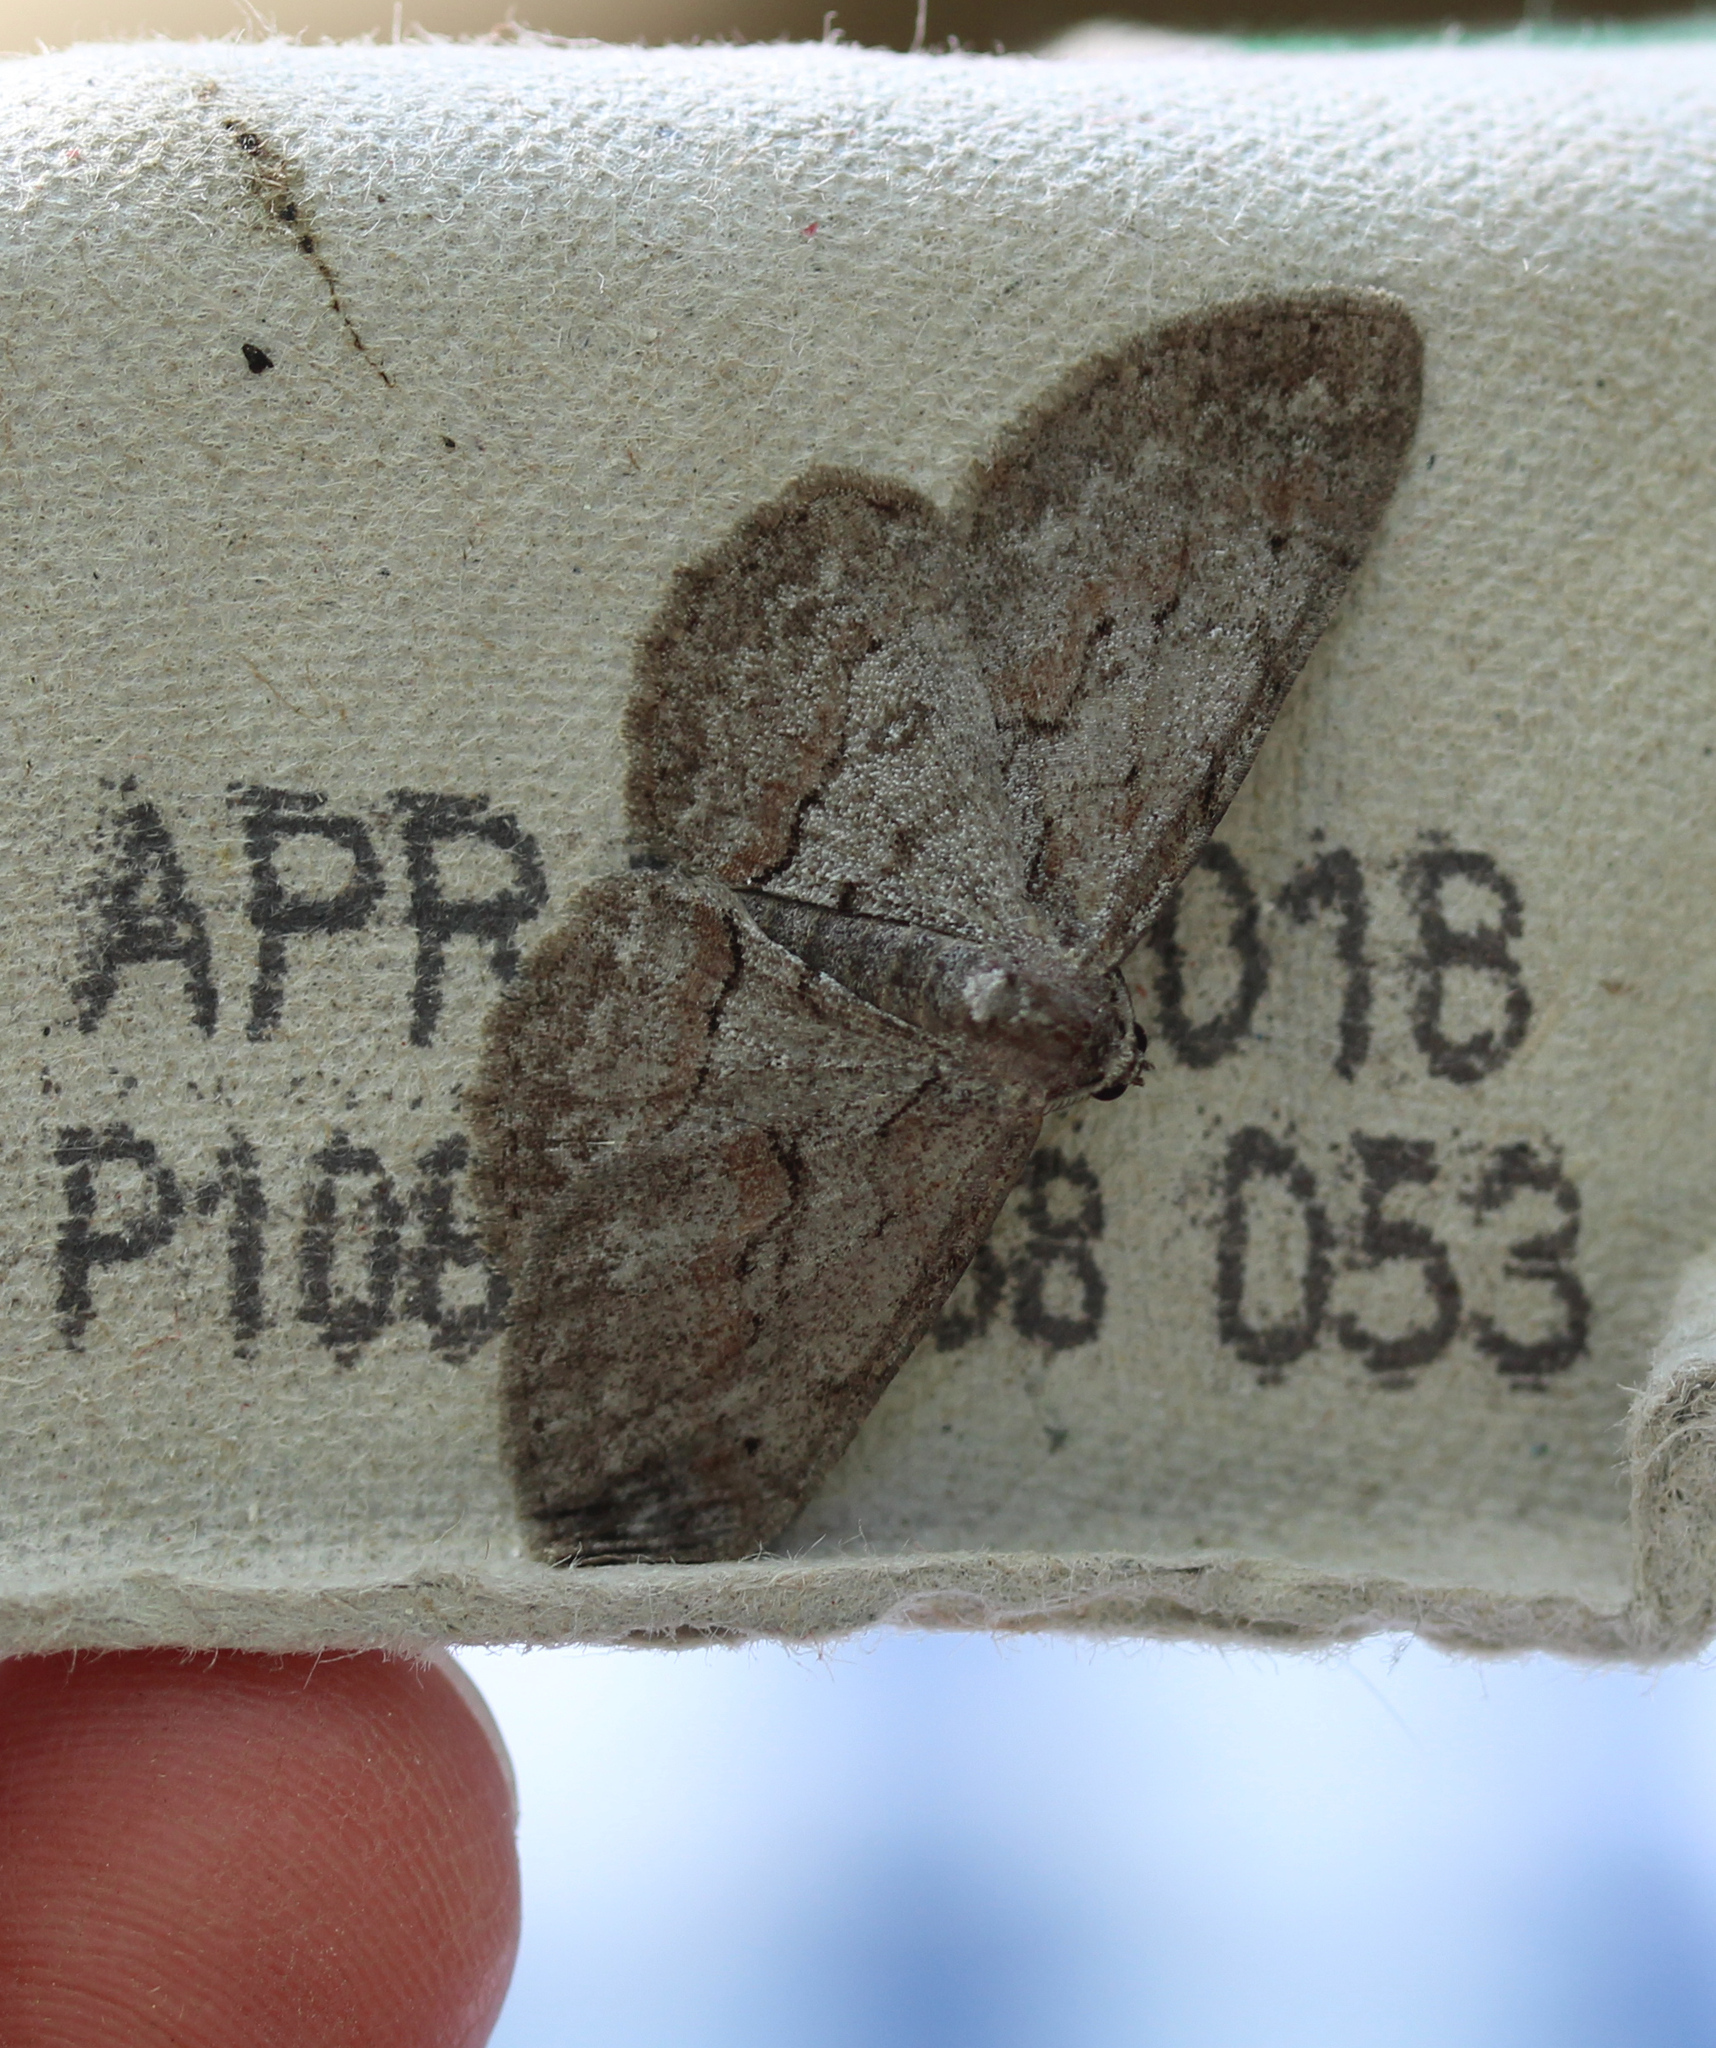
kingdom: Animalia
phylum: Arthropoda
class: Insecta
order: Lepidoptera
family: Geometridae
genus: Iridopsis
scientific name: Iridopsis vellivolata
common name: Large purplish gray
